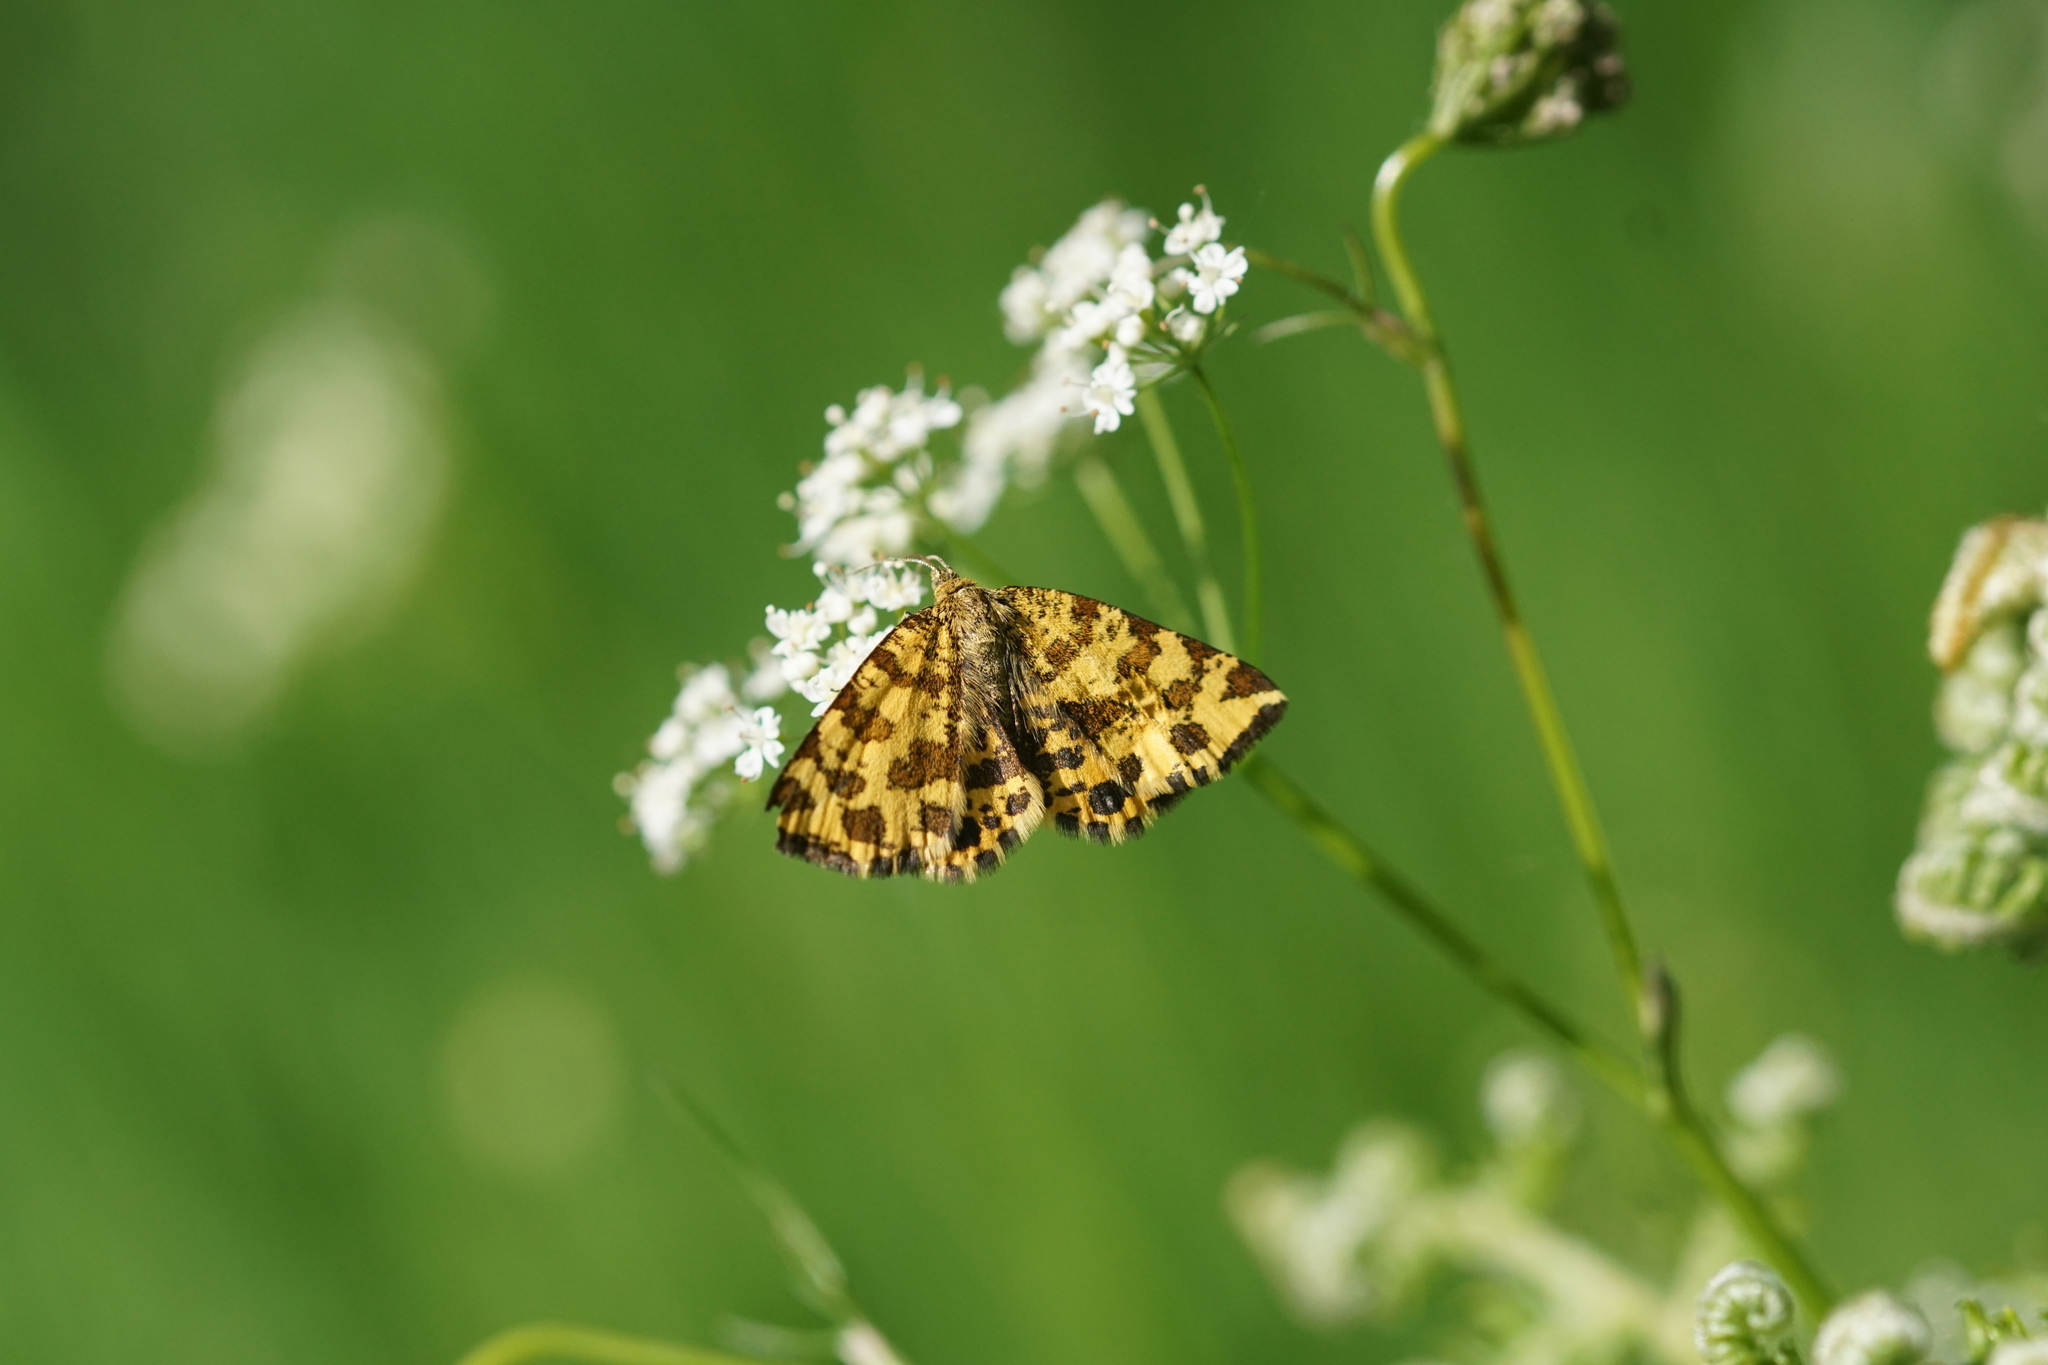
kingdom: Animalia
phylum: Arthropoda
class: Insecta
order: Lepidoptera
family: Geometridae
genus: Pseudopanthera
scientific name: Pseudopanthera macularia
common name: Speckled yellow
